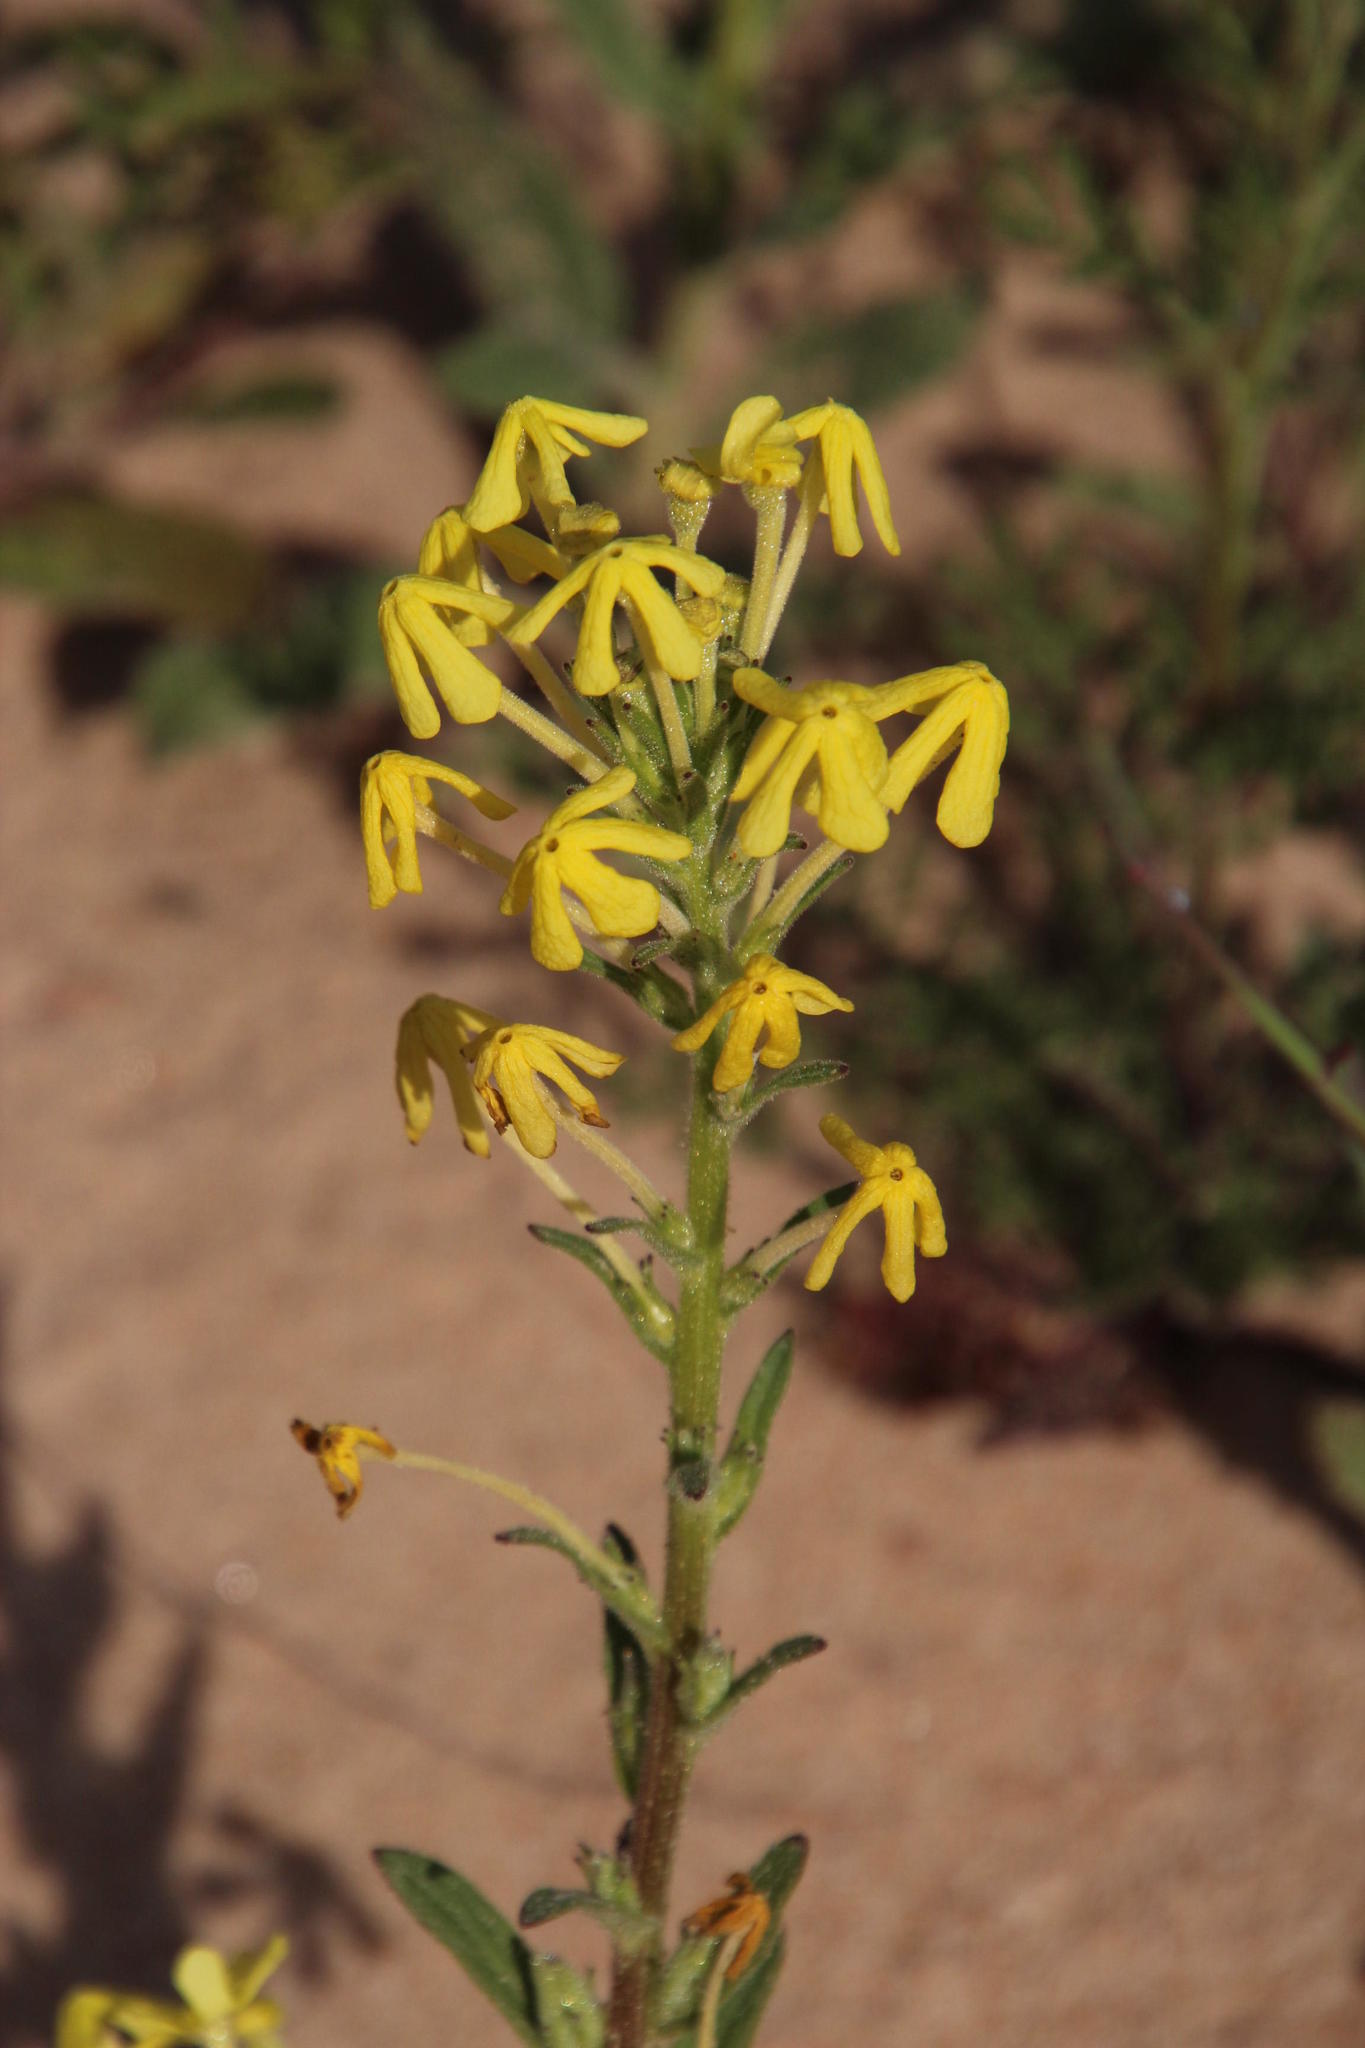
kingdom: Plantae
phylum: Tracheophyta
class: Magnoliopsida
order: Lamiales
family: Scrophulariaceae
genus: Lyperia
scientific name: Lyperia tristis
